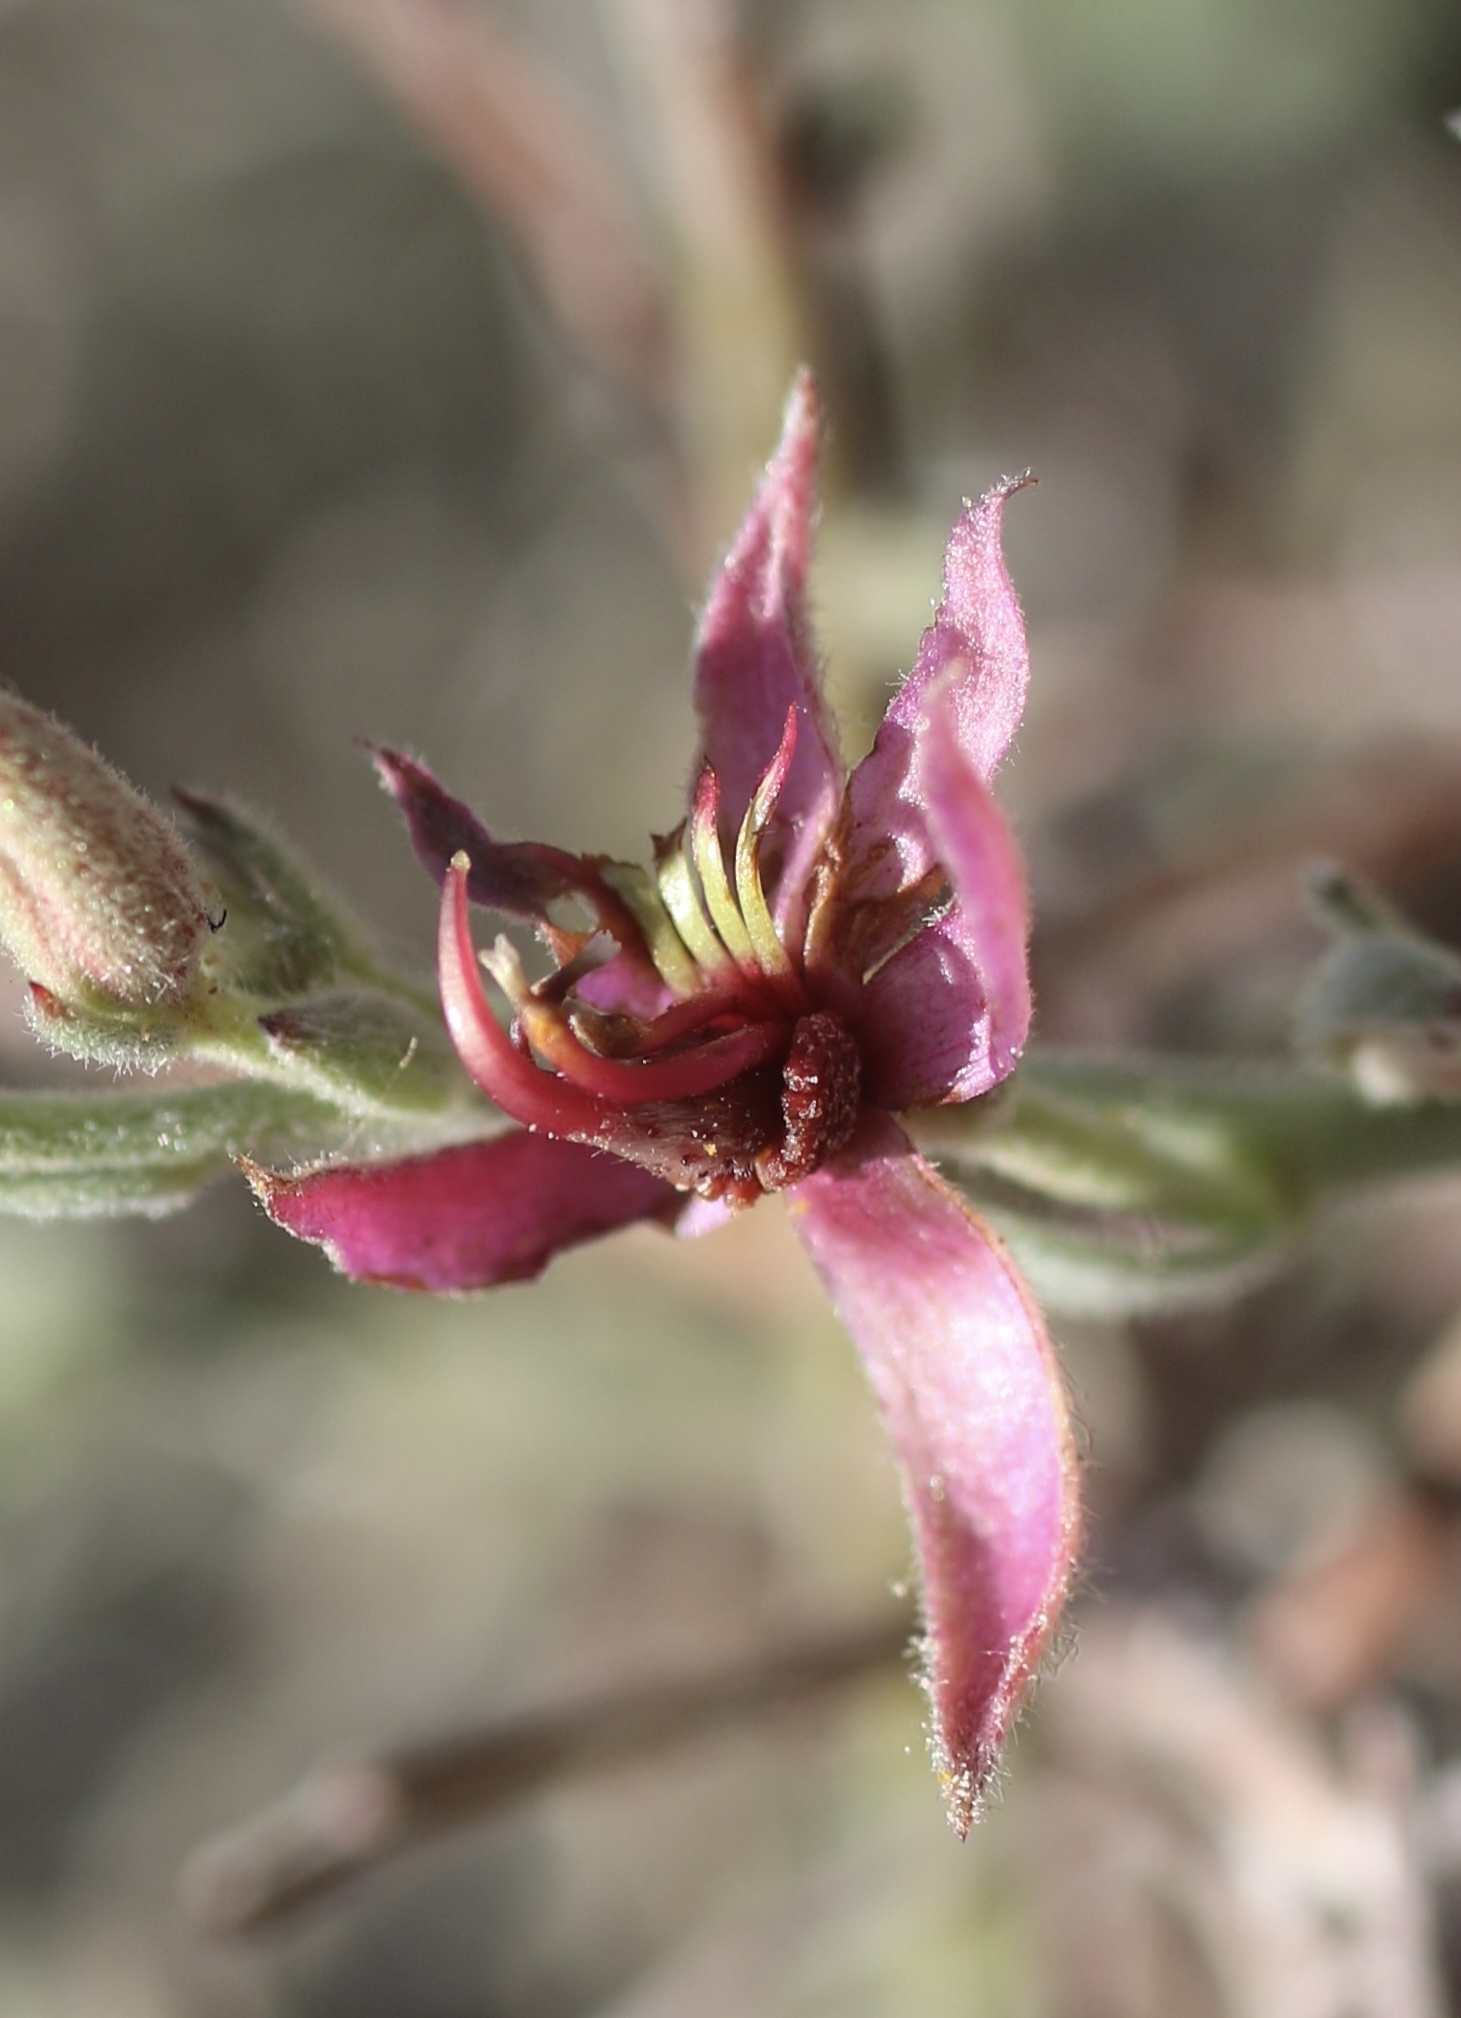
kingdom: Plantae
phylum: Tracheophyta
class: Magnoliopsida
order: Zygophyllales
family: Krameriaceae
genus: Krameria
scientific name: Krameria bicolor
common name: White ratany
